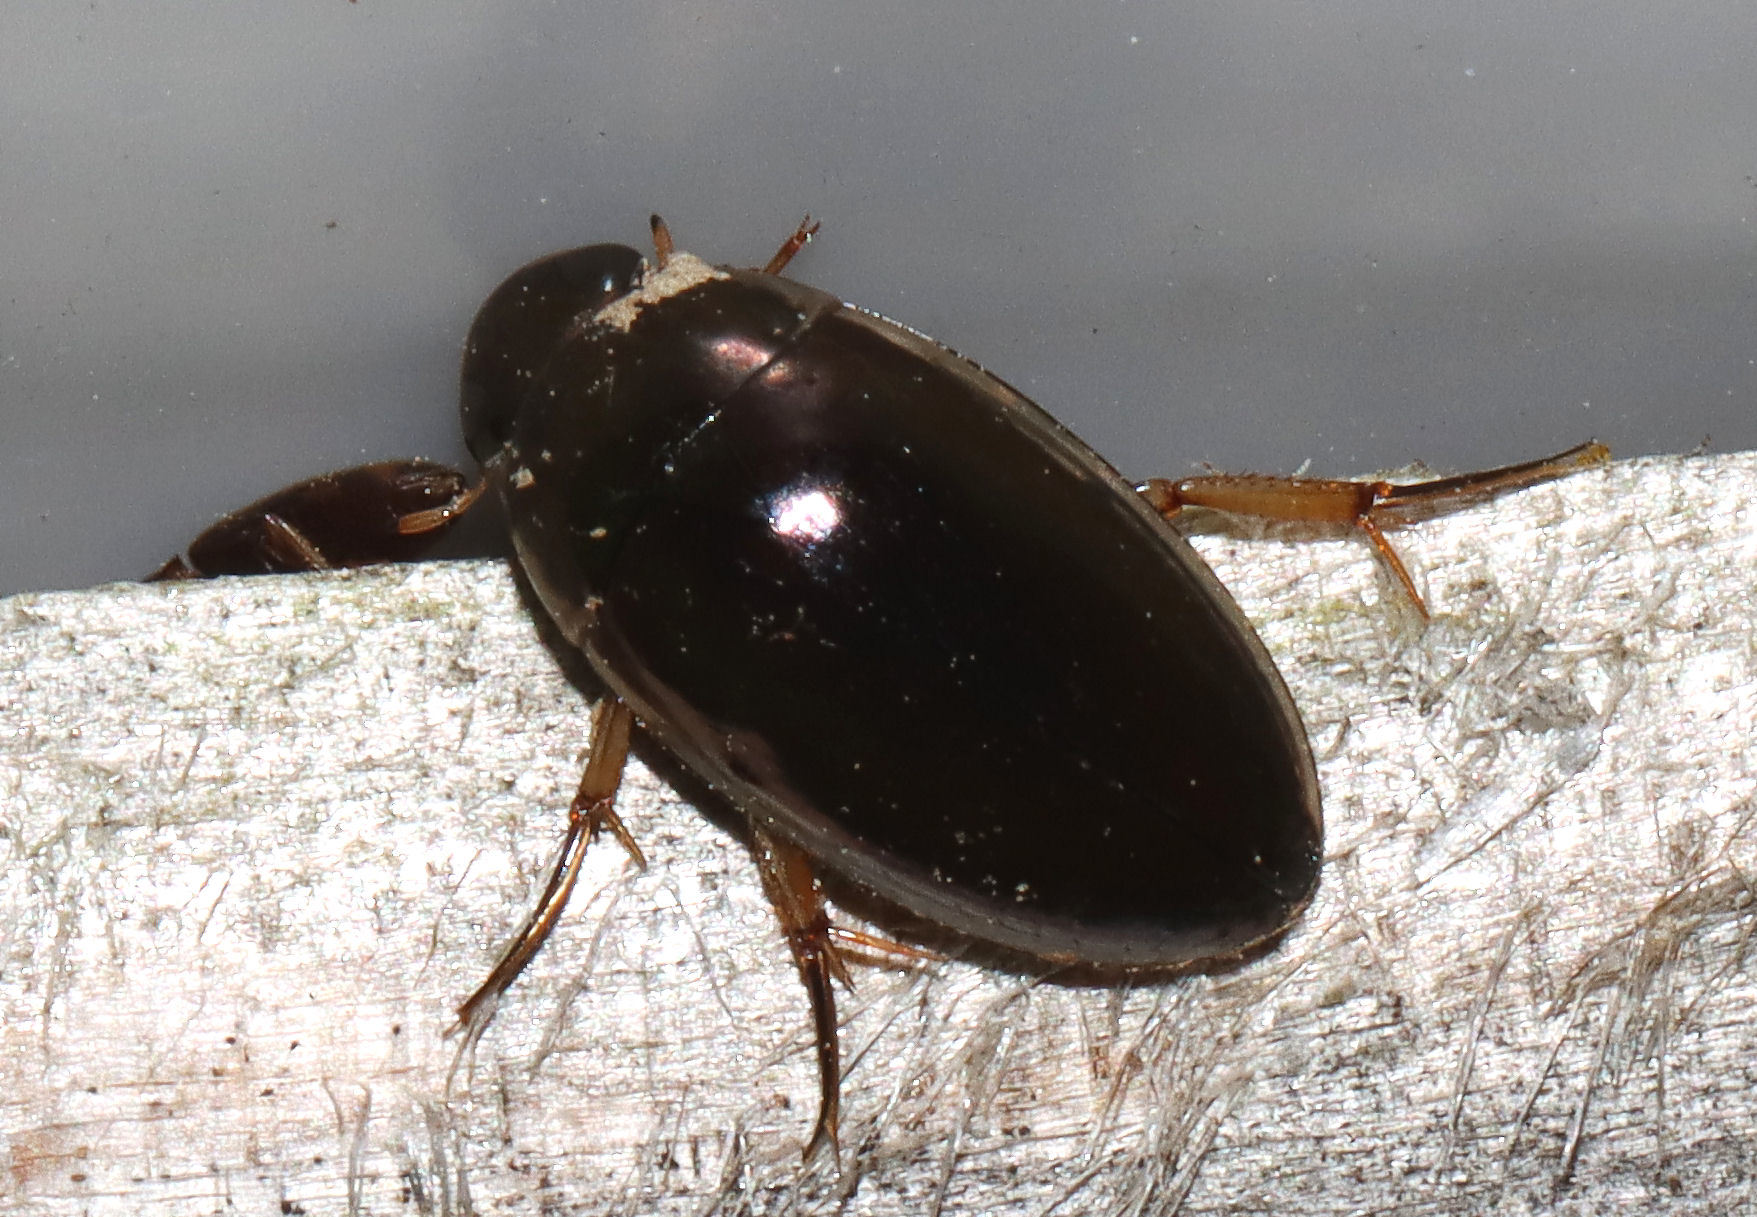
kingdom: Animalia
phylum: Arthropoda
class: Insecta
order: Coleoptera
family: Hydrophilidae
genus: Tropisternus
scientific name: Tropisternus lateralis
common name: Lateral-banded water scavenger beetle
